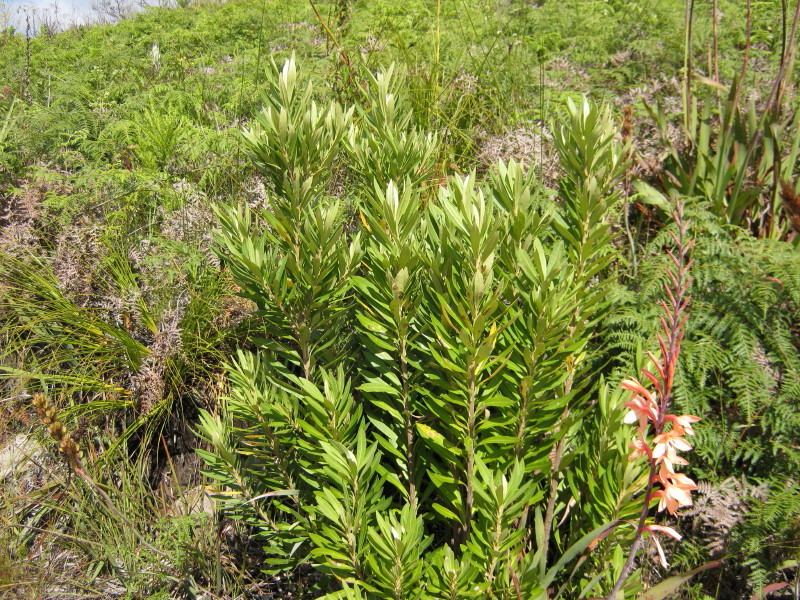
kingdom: Plantae
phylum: Tracheophyta
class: Magnoliopsida
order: Asterales
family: Asteraceae
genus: Brachylaena
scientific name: Brachylaena neriifolia
